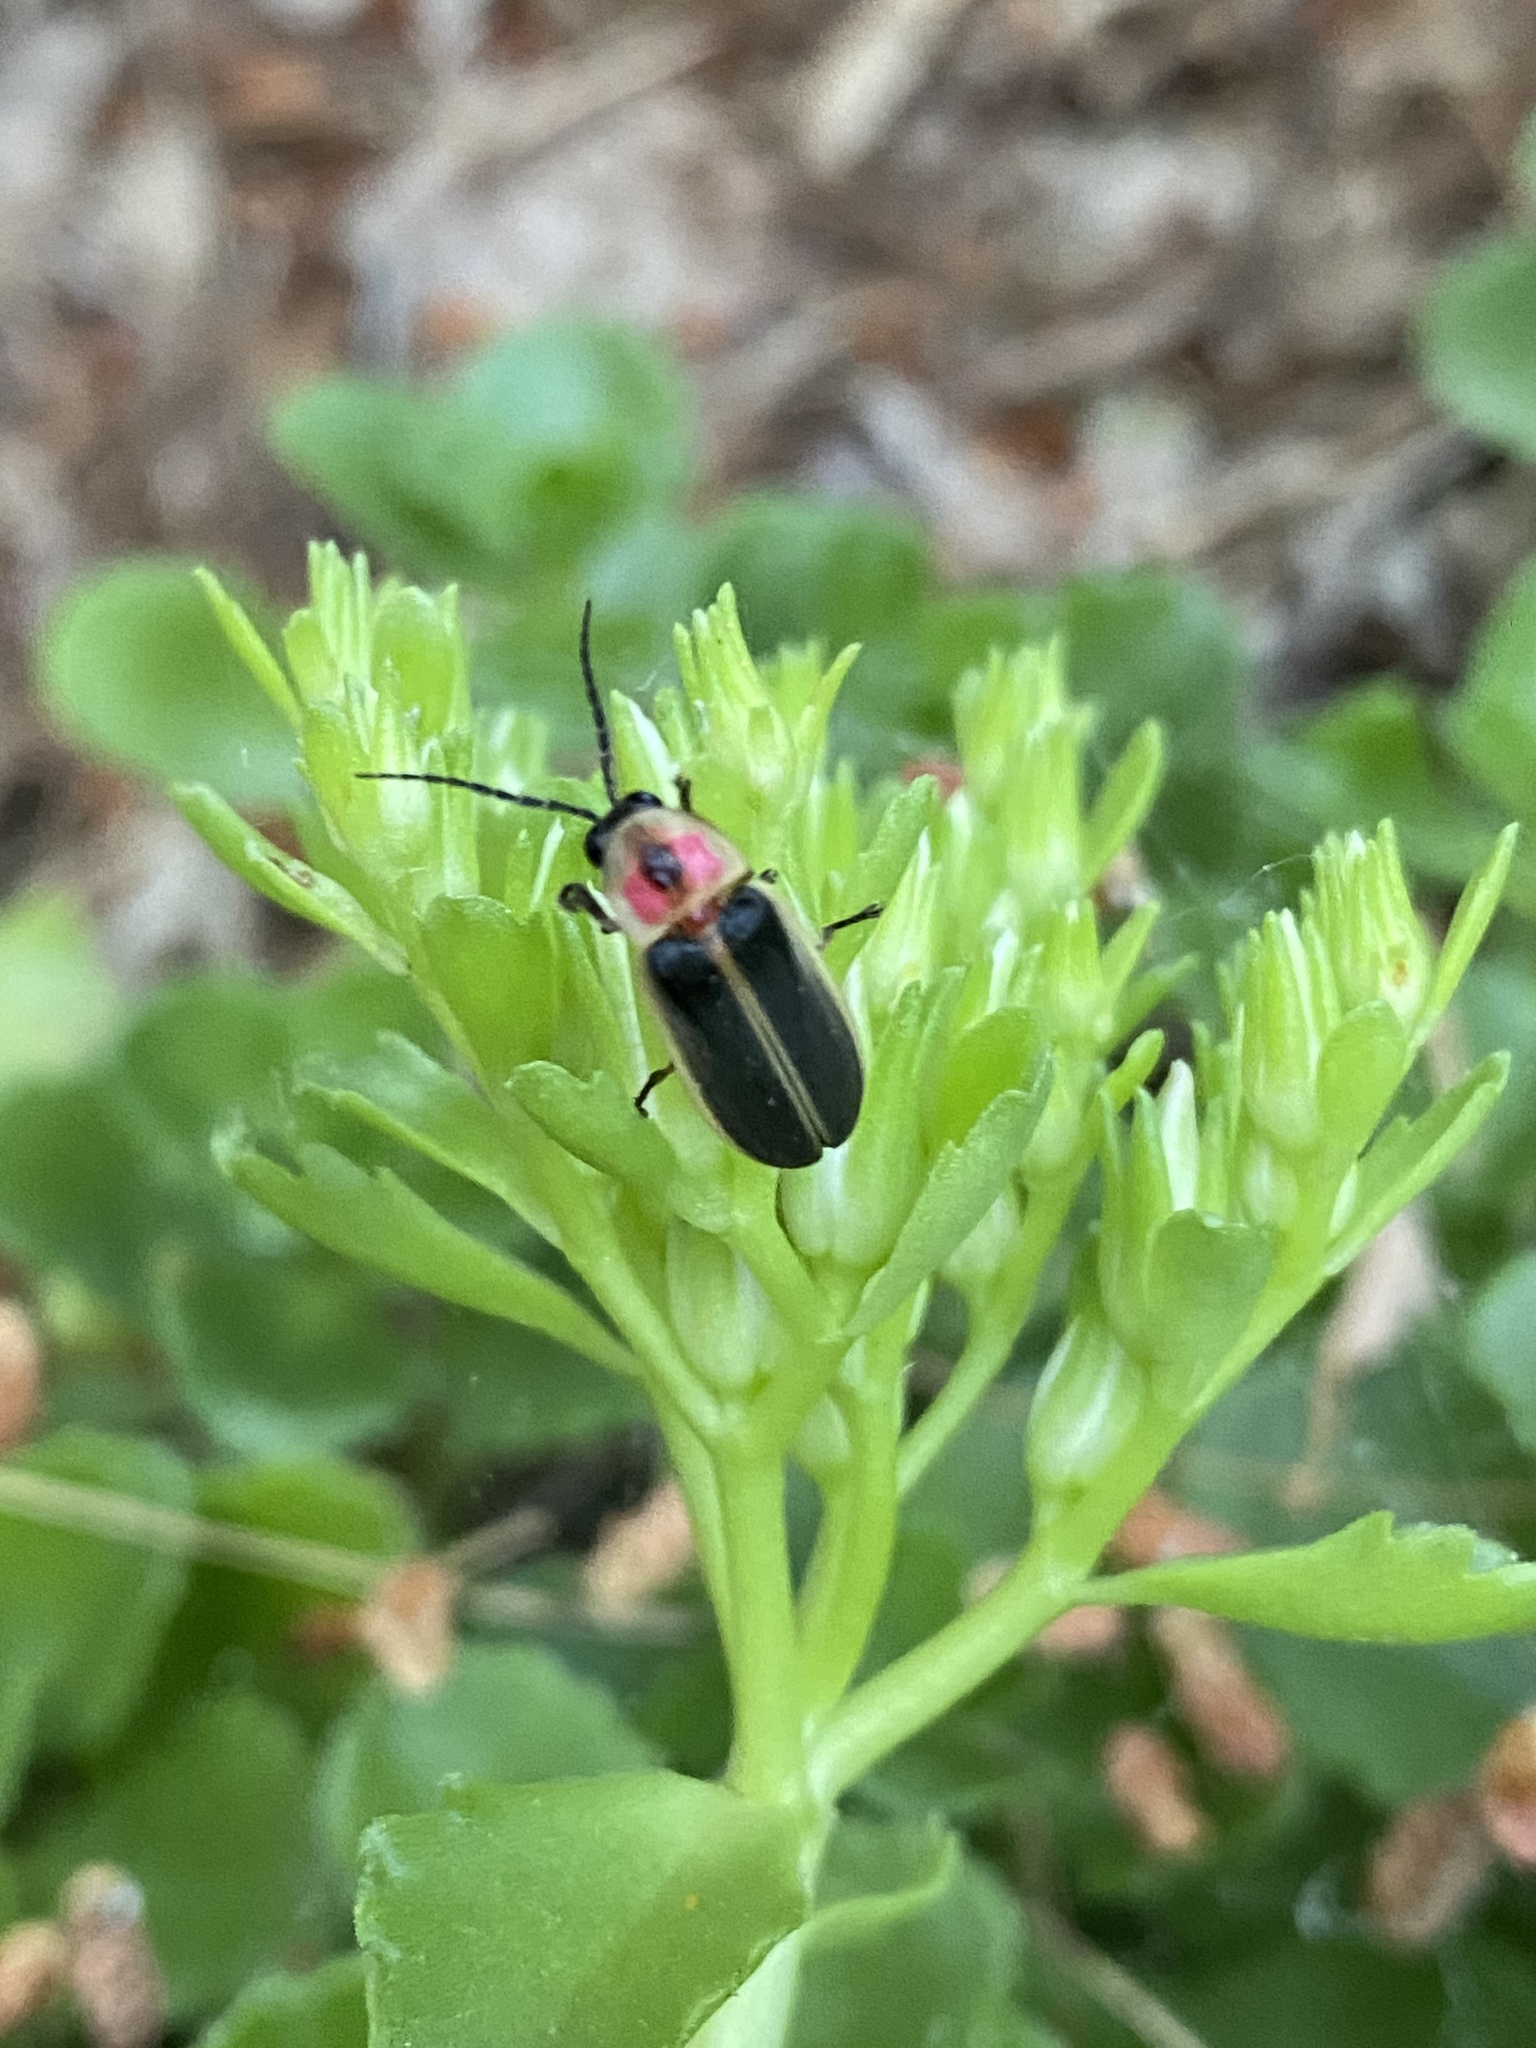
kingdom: Animalia
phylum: Arthropoda
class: Insecta
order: Coleoptera
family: Lampyridae
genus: Photinus
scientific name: Photinus pyralis
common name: Big dipper firefly
